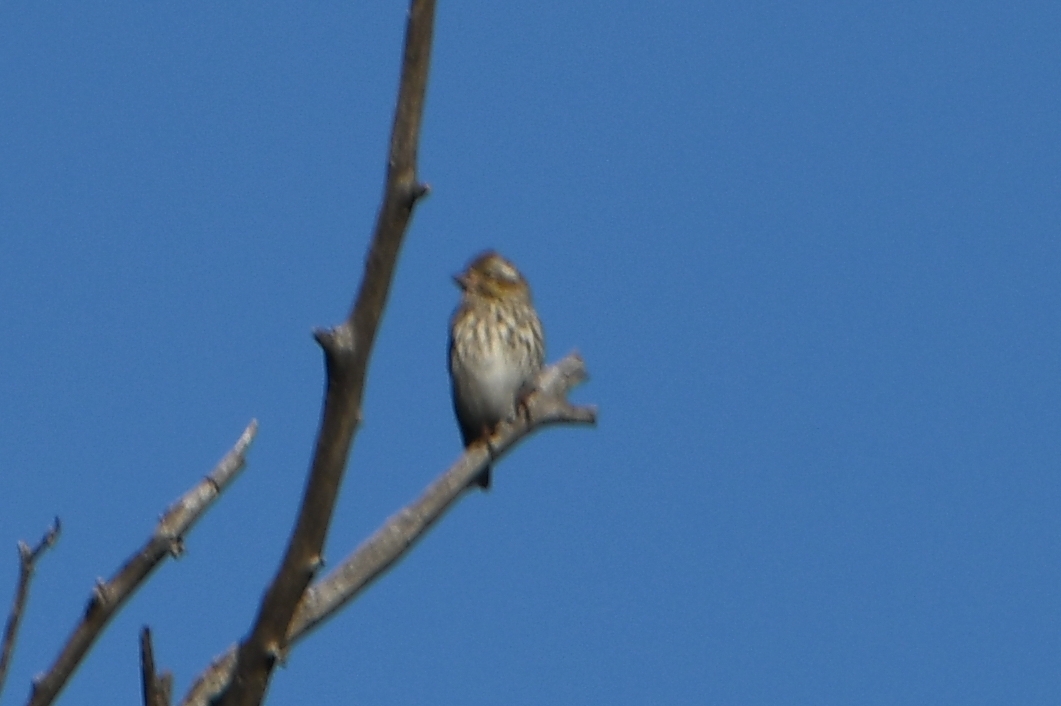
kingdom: Animalia
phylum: Chordata
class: Aves
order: Passeriformes
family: Fringillidae
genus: Haemorhous
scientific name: Haemorhous cassinii
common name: Cassin's finch
